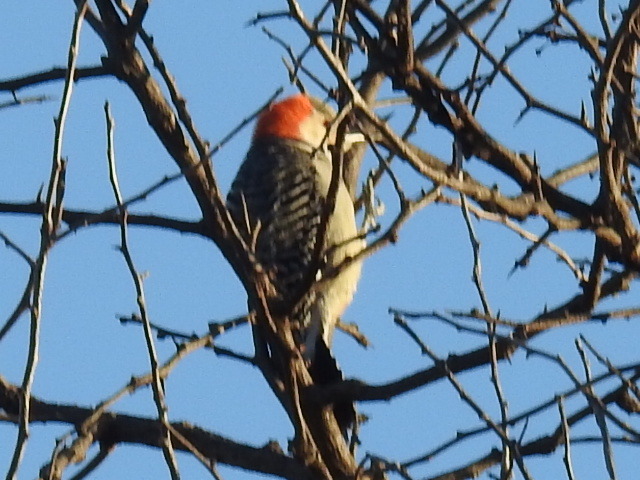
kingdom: Animalia
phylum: Chordata
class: Aves
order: Piciformes
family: Picidae
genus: Melanerpes
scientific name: Melanerpes carolinus
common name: Red-bellied woodpecker
